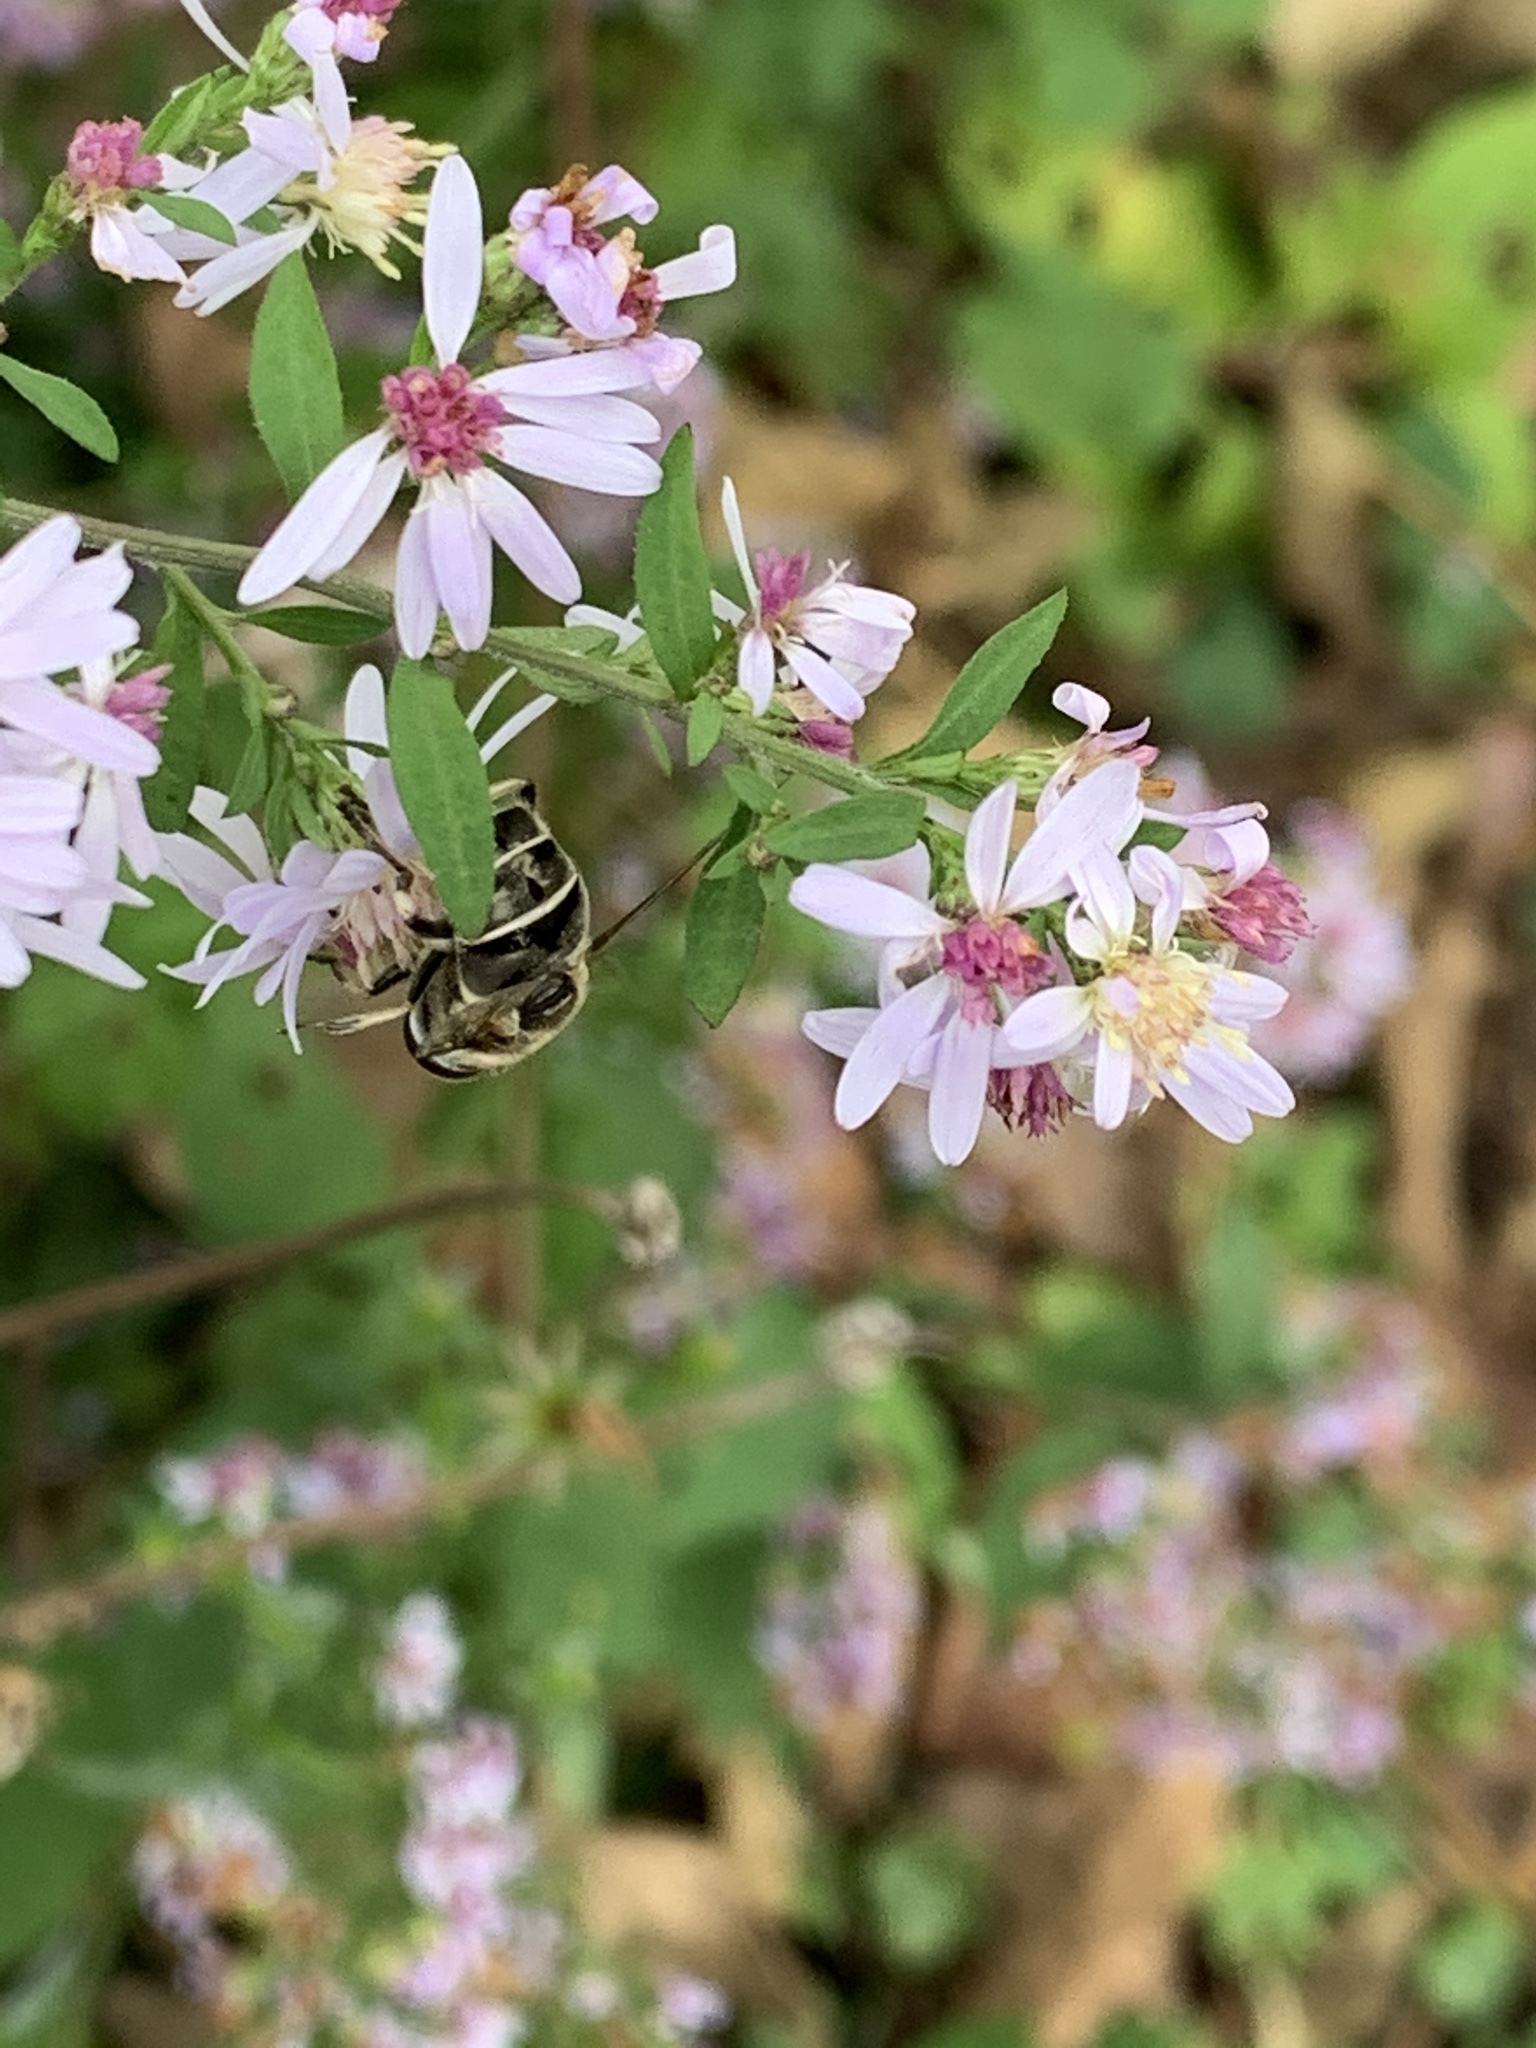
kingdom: Animalia
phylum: Arthropoda
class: Insecta
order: Diptera
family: Syrphidae
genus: Eristalis
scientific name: Eristalis dimidiata
